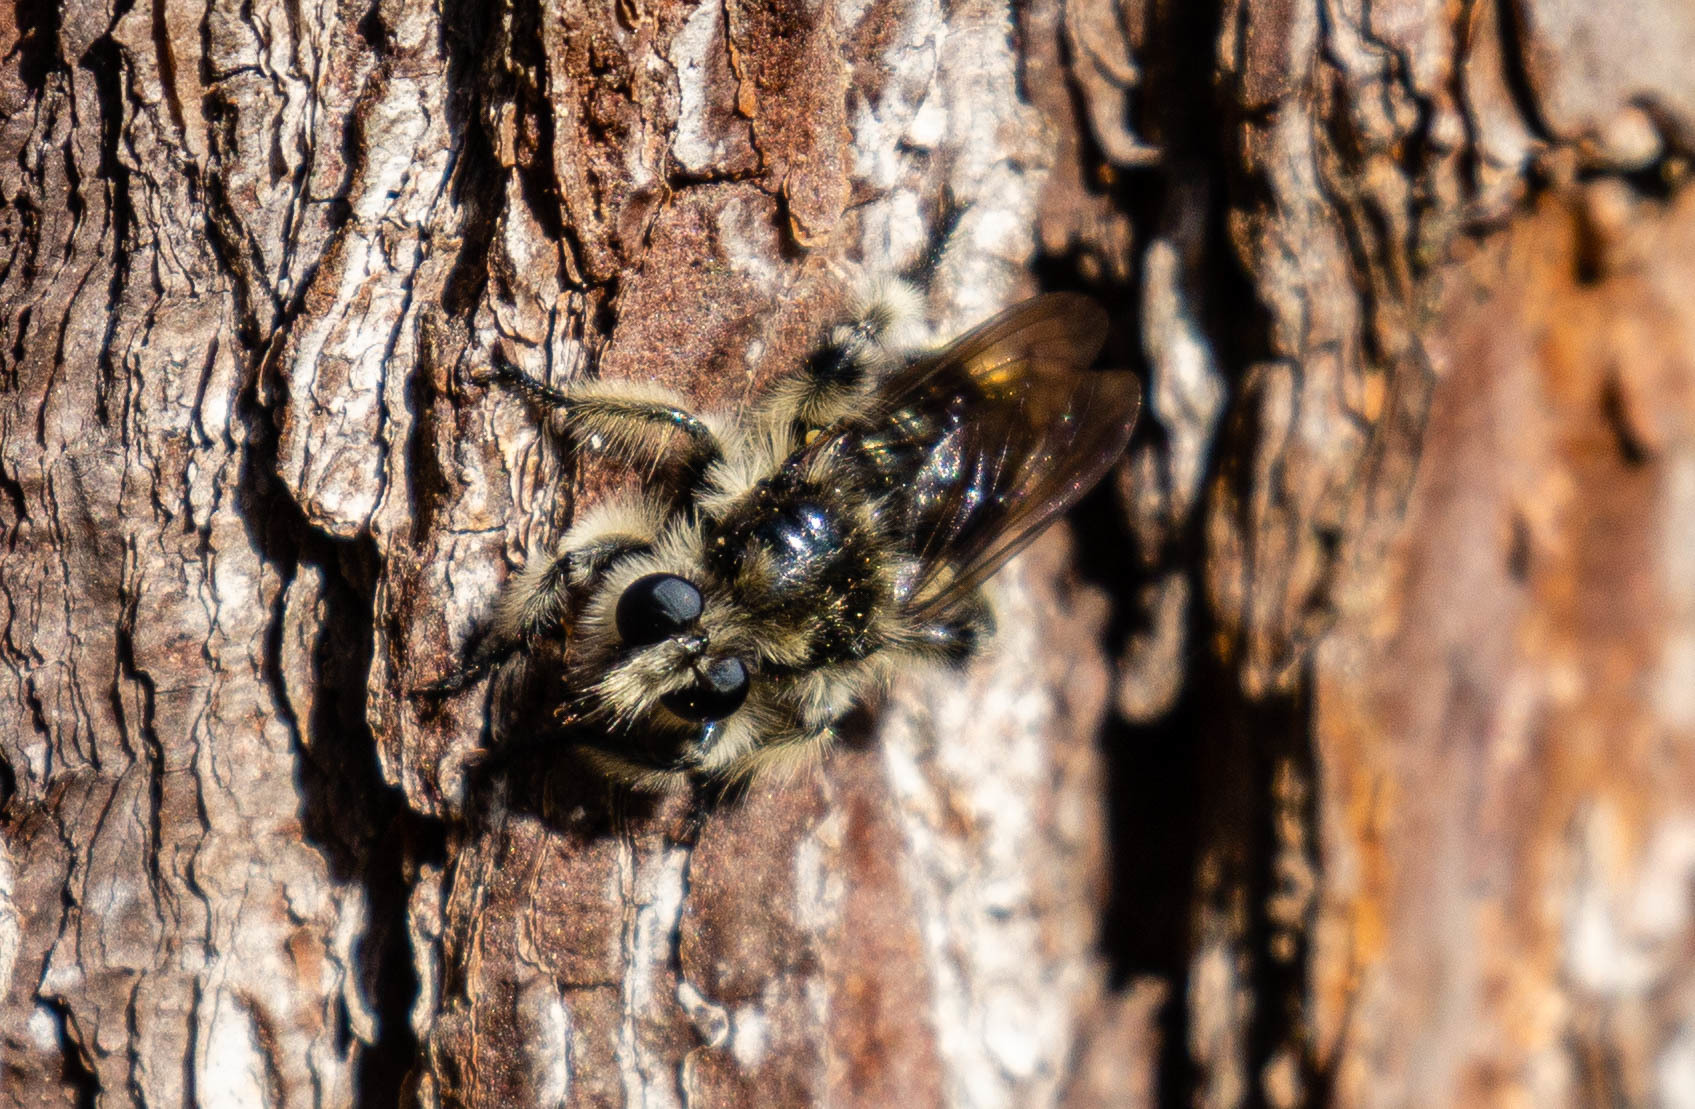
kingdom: Animalia
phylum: Arthropoda
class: Insecta
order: Diptera
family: Asilidae
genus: Laphria
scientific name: Laphria cinerea
